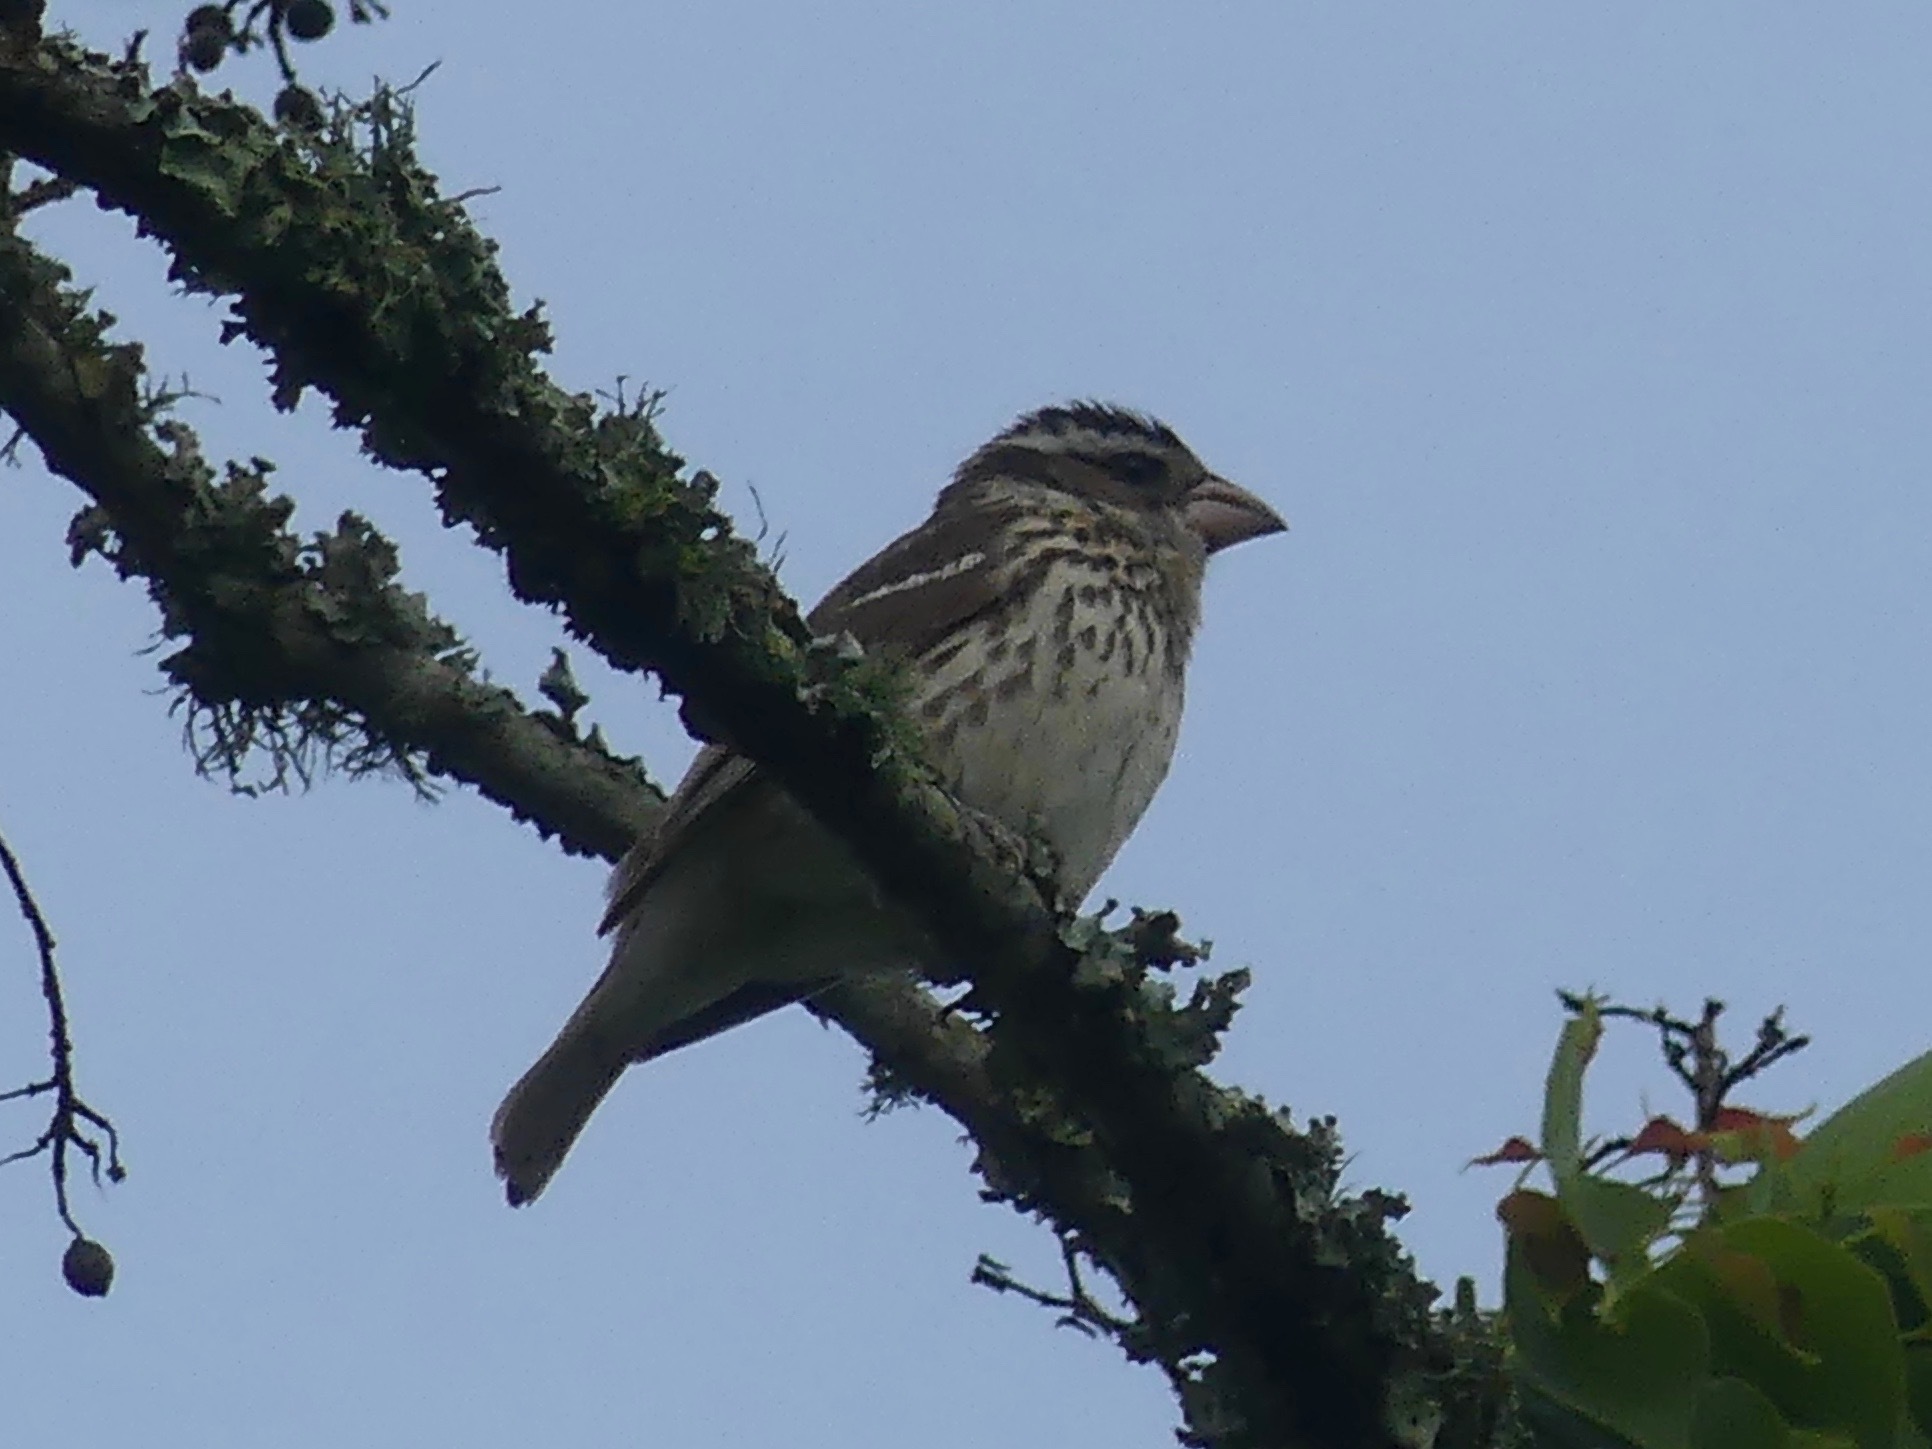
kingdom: Animalia
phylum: Chordata
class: Aves
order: Passeriformes
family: Cardinalidae
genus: Pheucticus
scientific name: Pheucticus ludovicianus
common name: Rose-breasted grosbeak
